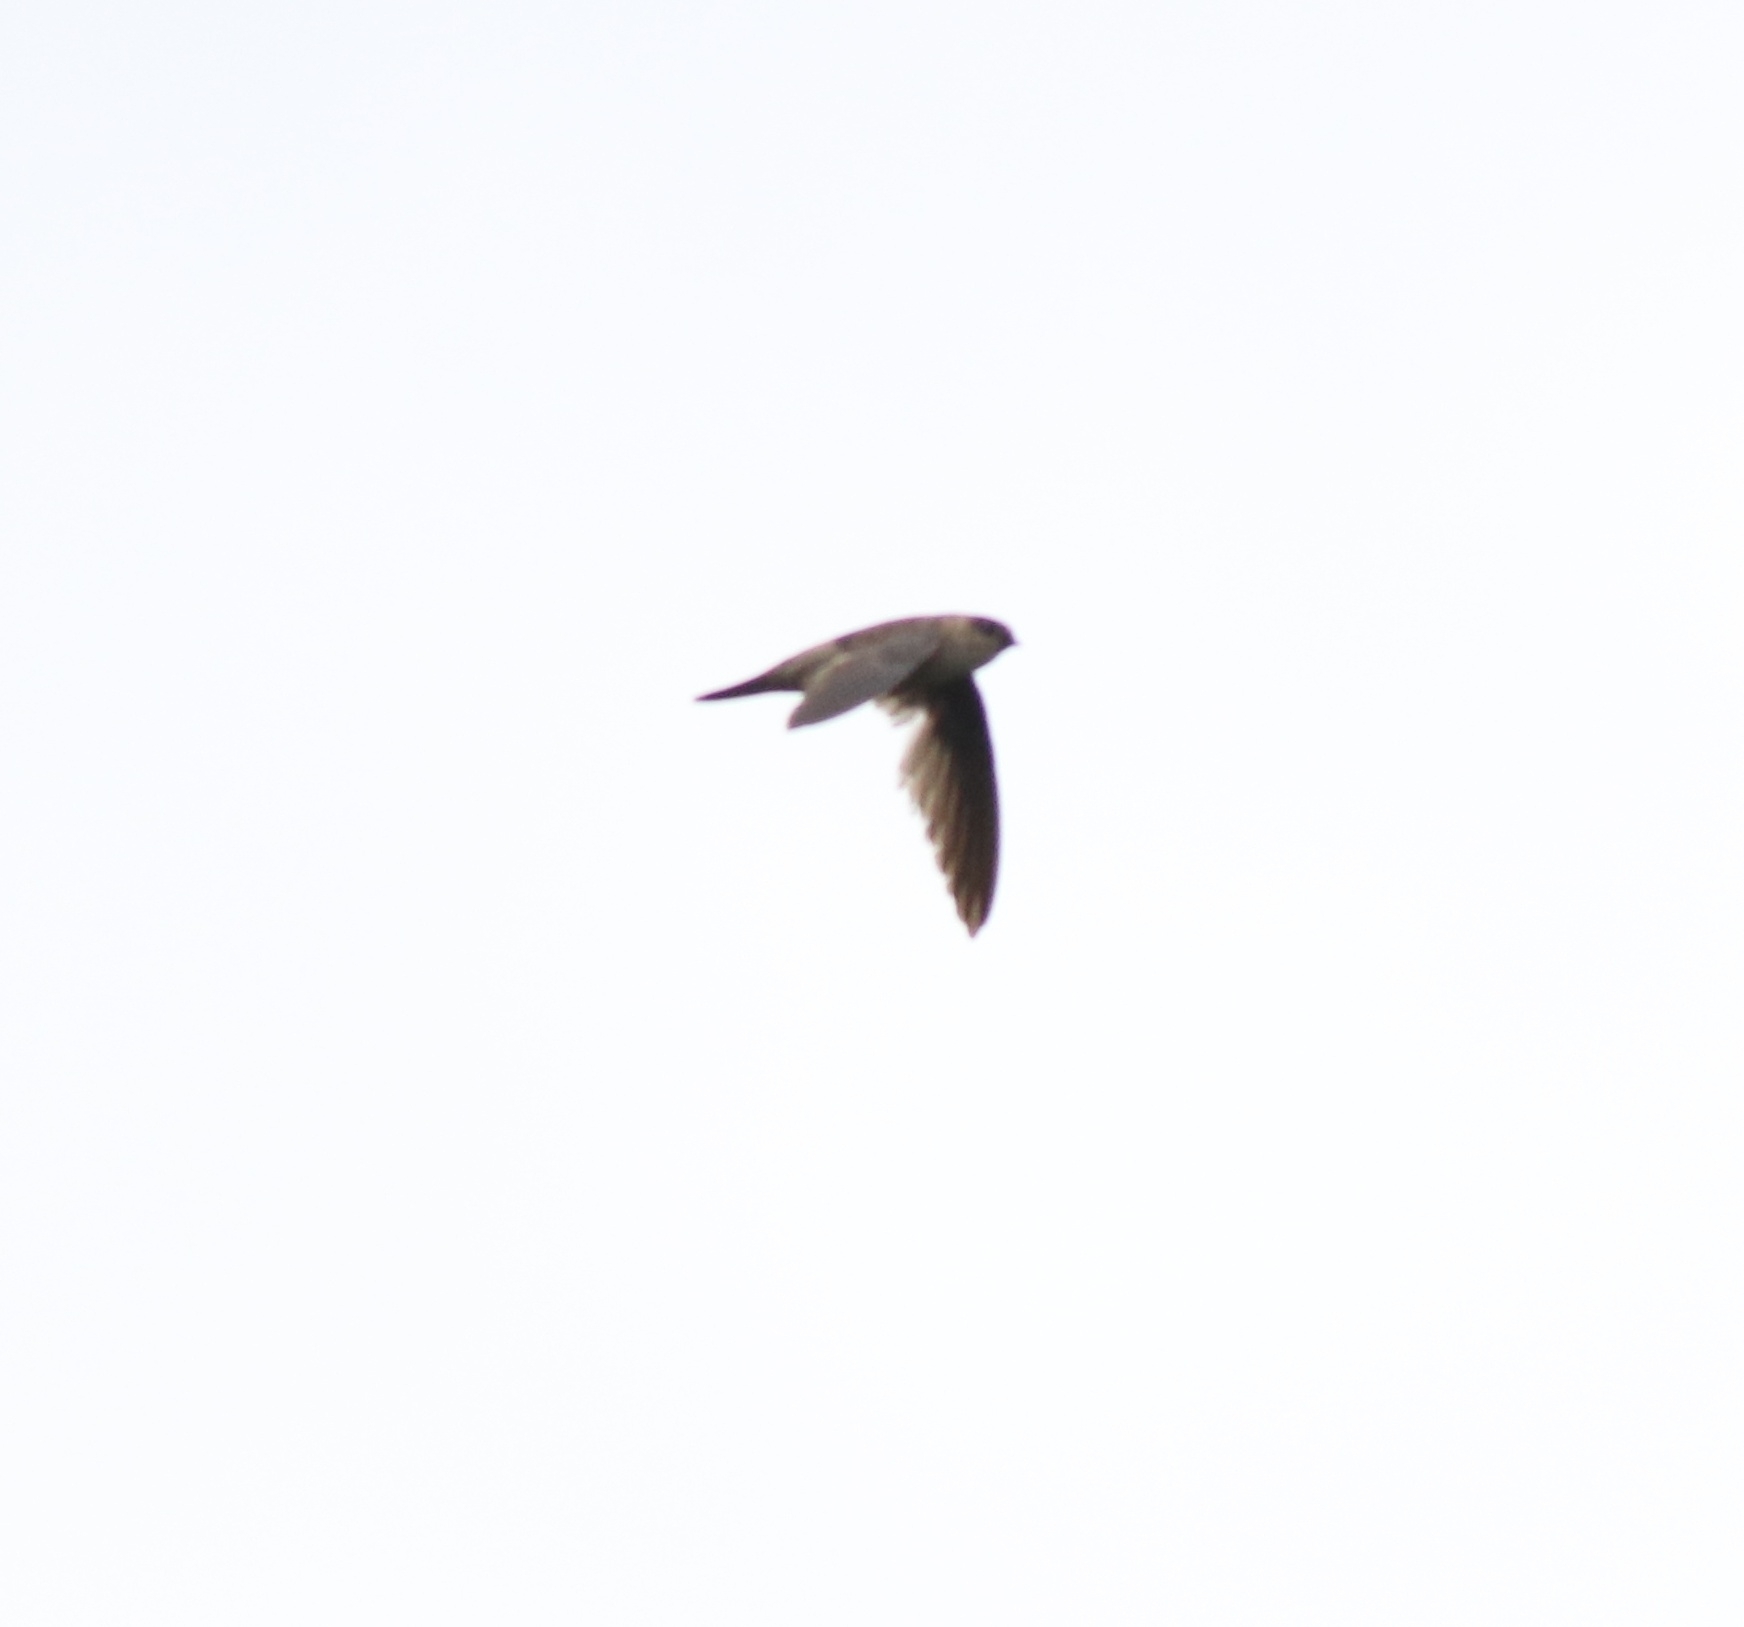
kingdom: Animalia
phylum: Chordata
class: Aves
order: Apodiformes
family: Apodidae
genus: Aerodramus
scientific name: Aerodramus unicolor
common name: Indian swiftlet
